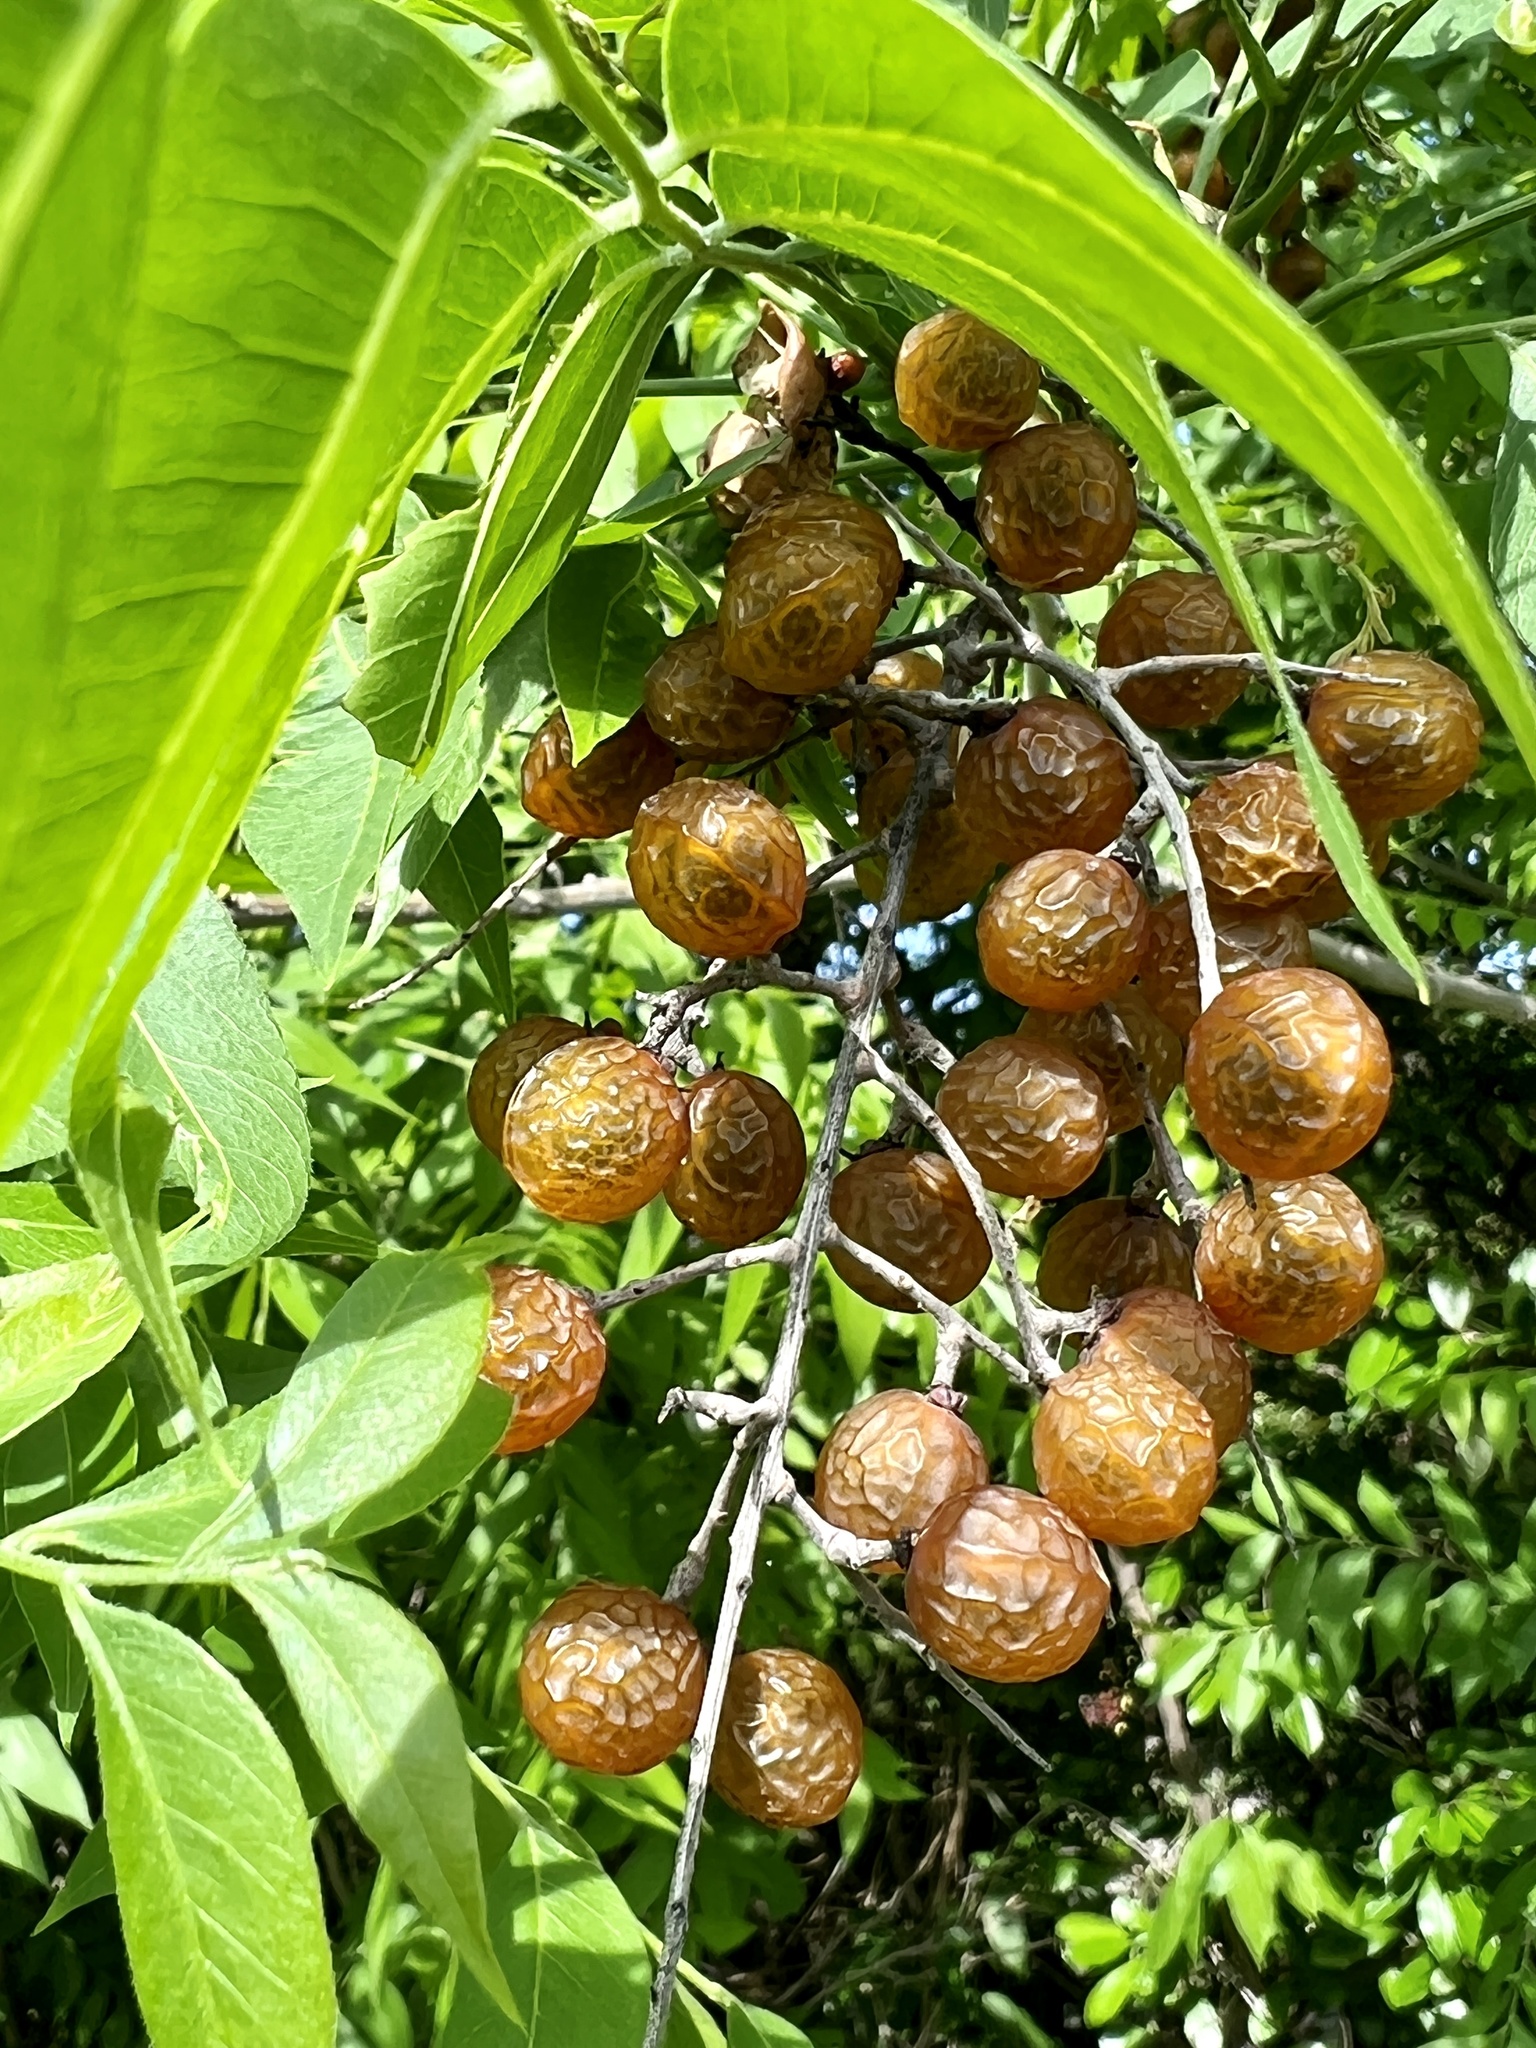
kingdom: Plantae
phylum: Tracheophyta
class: Magnoliopsida
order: Sapindales
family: Sapindaceae
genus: Sapindus
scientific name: Sapindus drummondii
